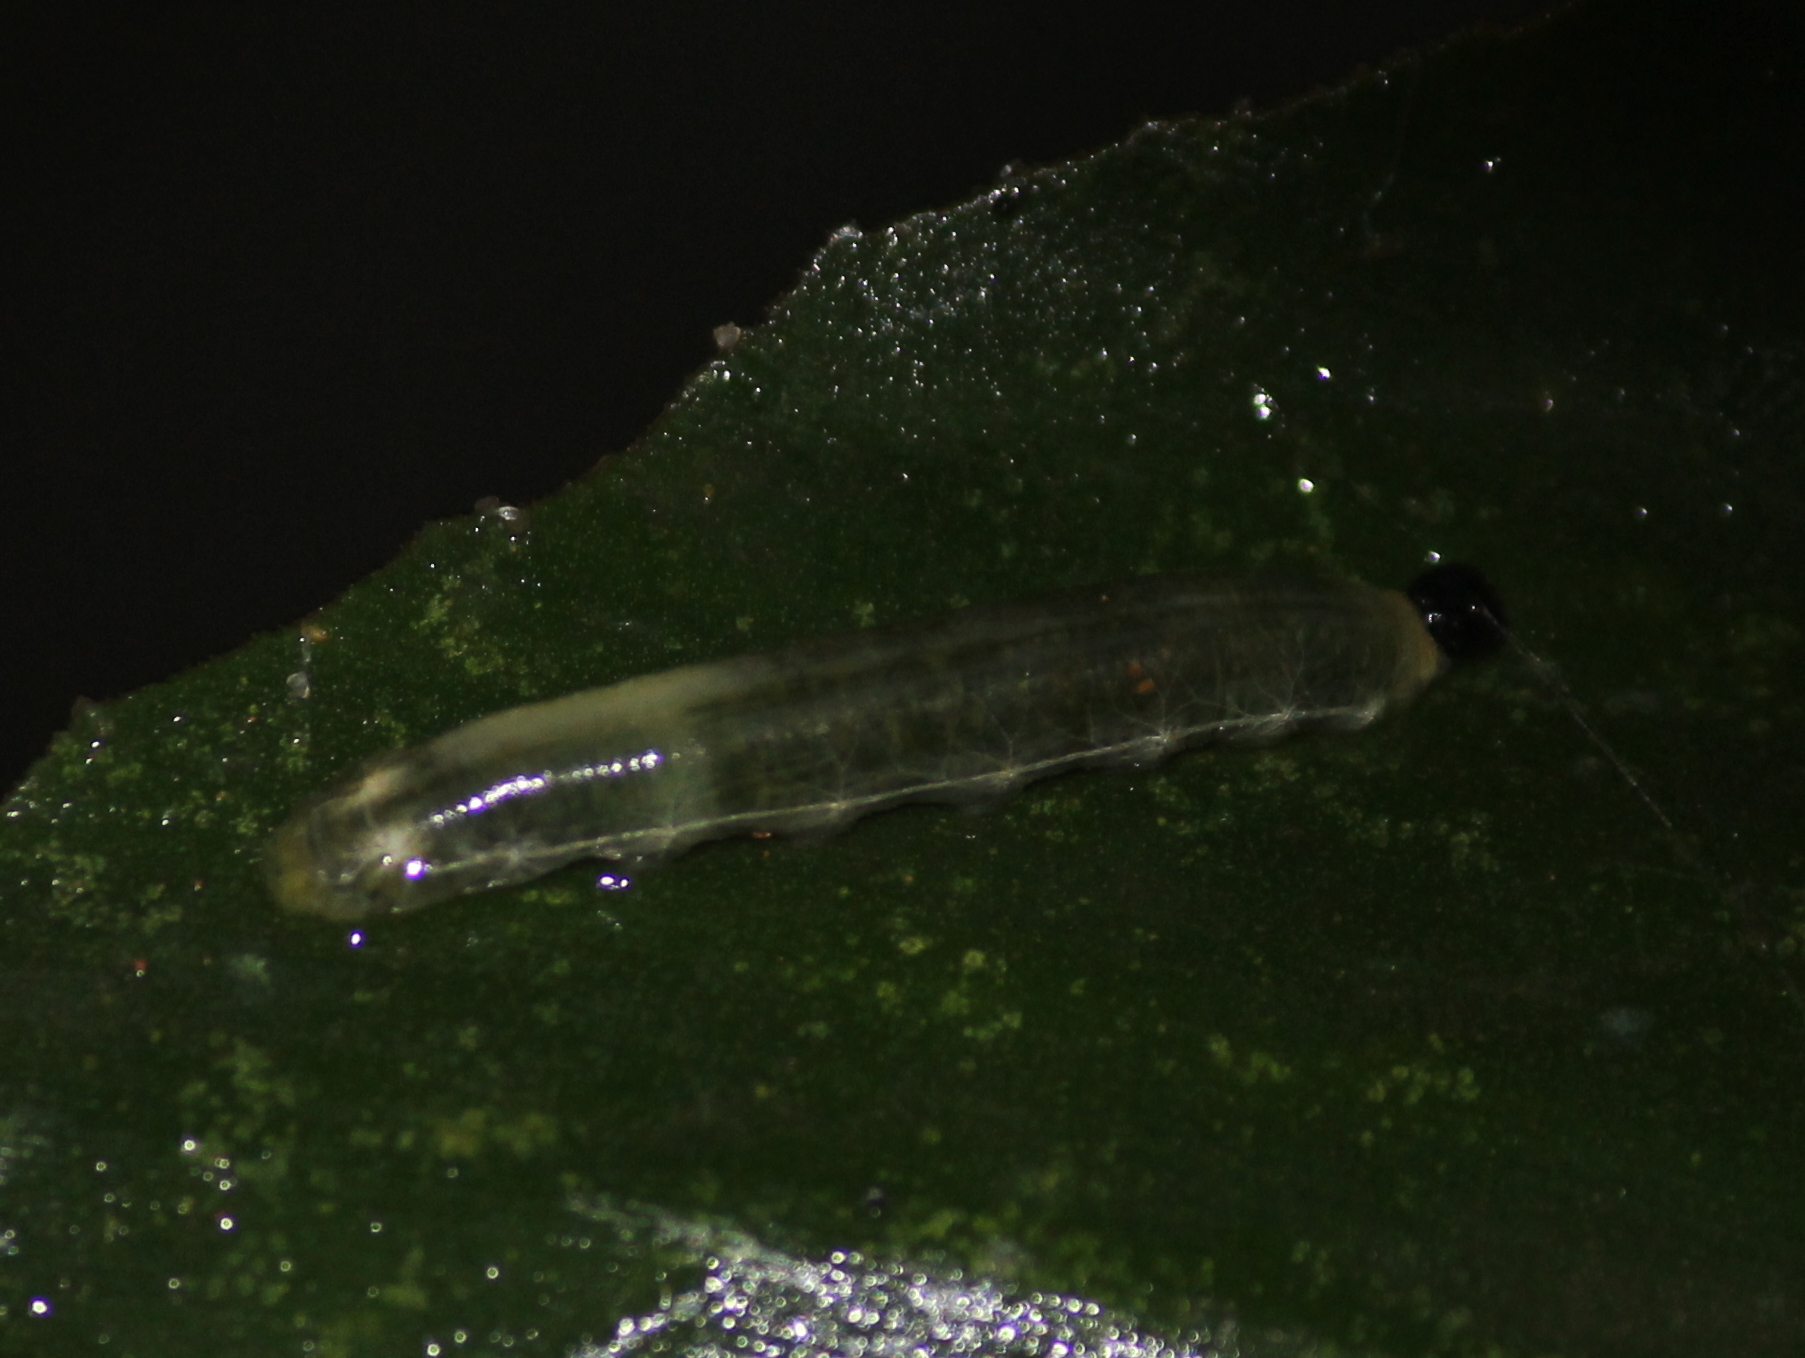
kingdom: Animalia
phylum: Arthropoda
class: Insecta
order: Lepidoptera
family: Hesperiidae
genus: Udaspes
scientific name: Udaspes folus
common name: Grass demon
